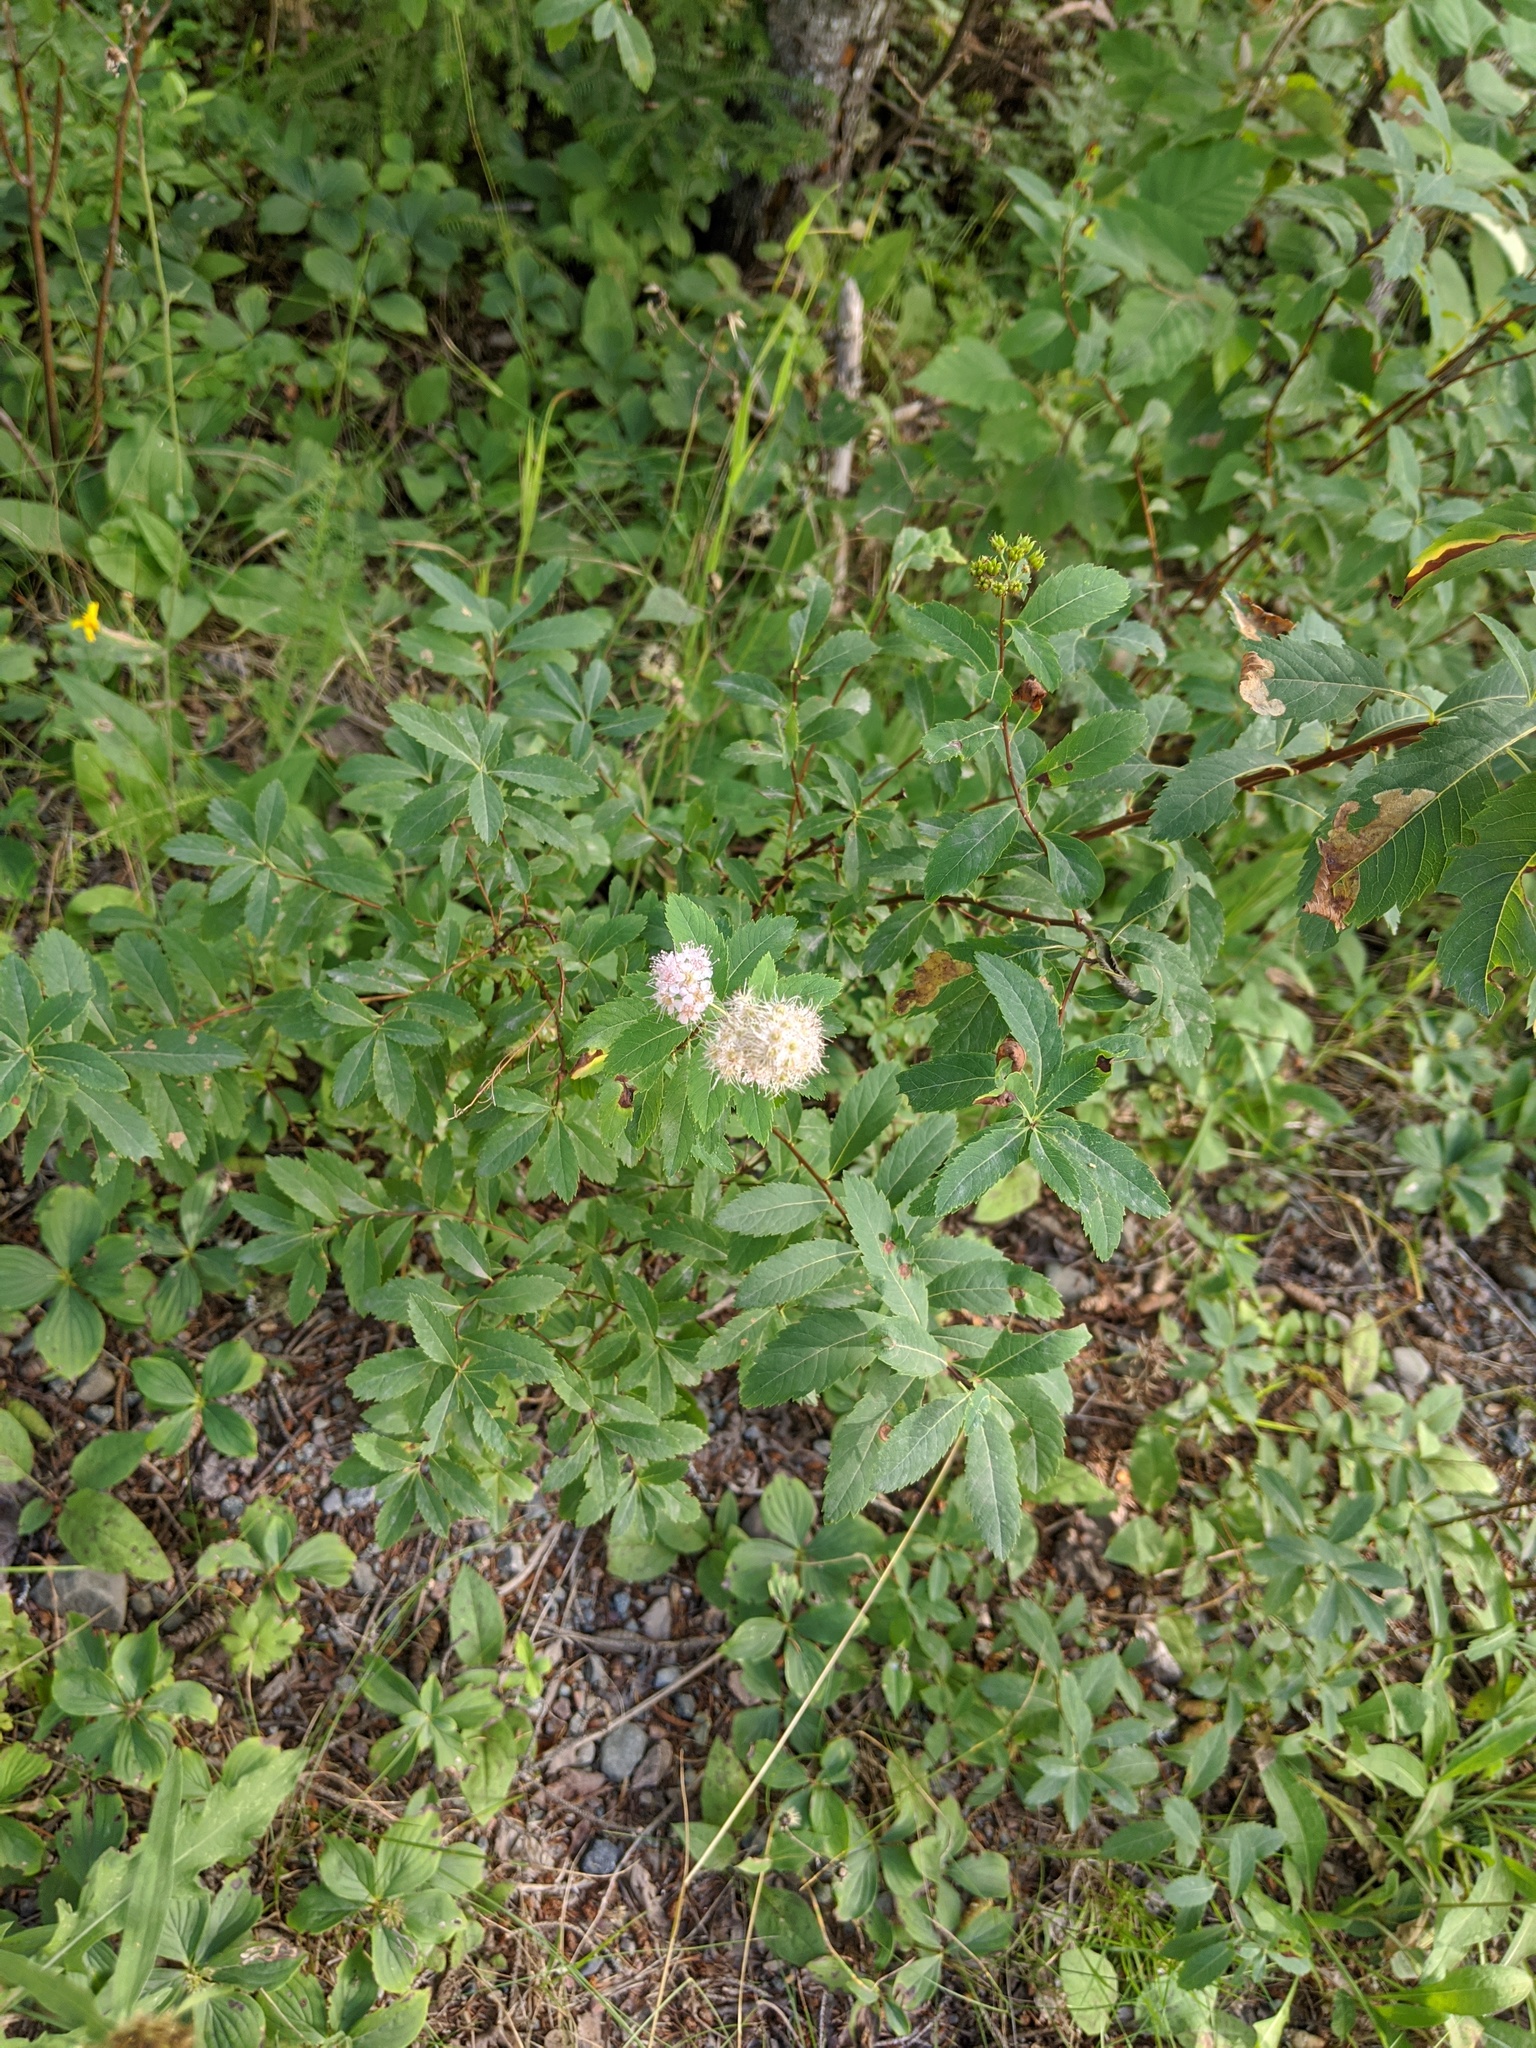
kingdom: Plantae
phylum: Tracheophyta
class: Magnoliopsida
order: Rosales
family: Rosaceae
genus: Spiraea
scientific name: Spiraea alba
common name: Pale bridewort
